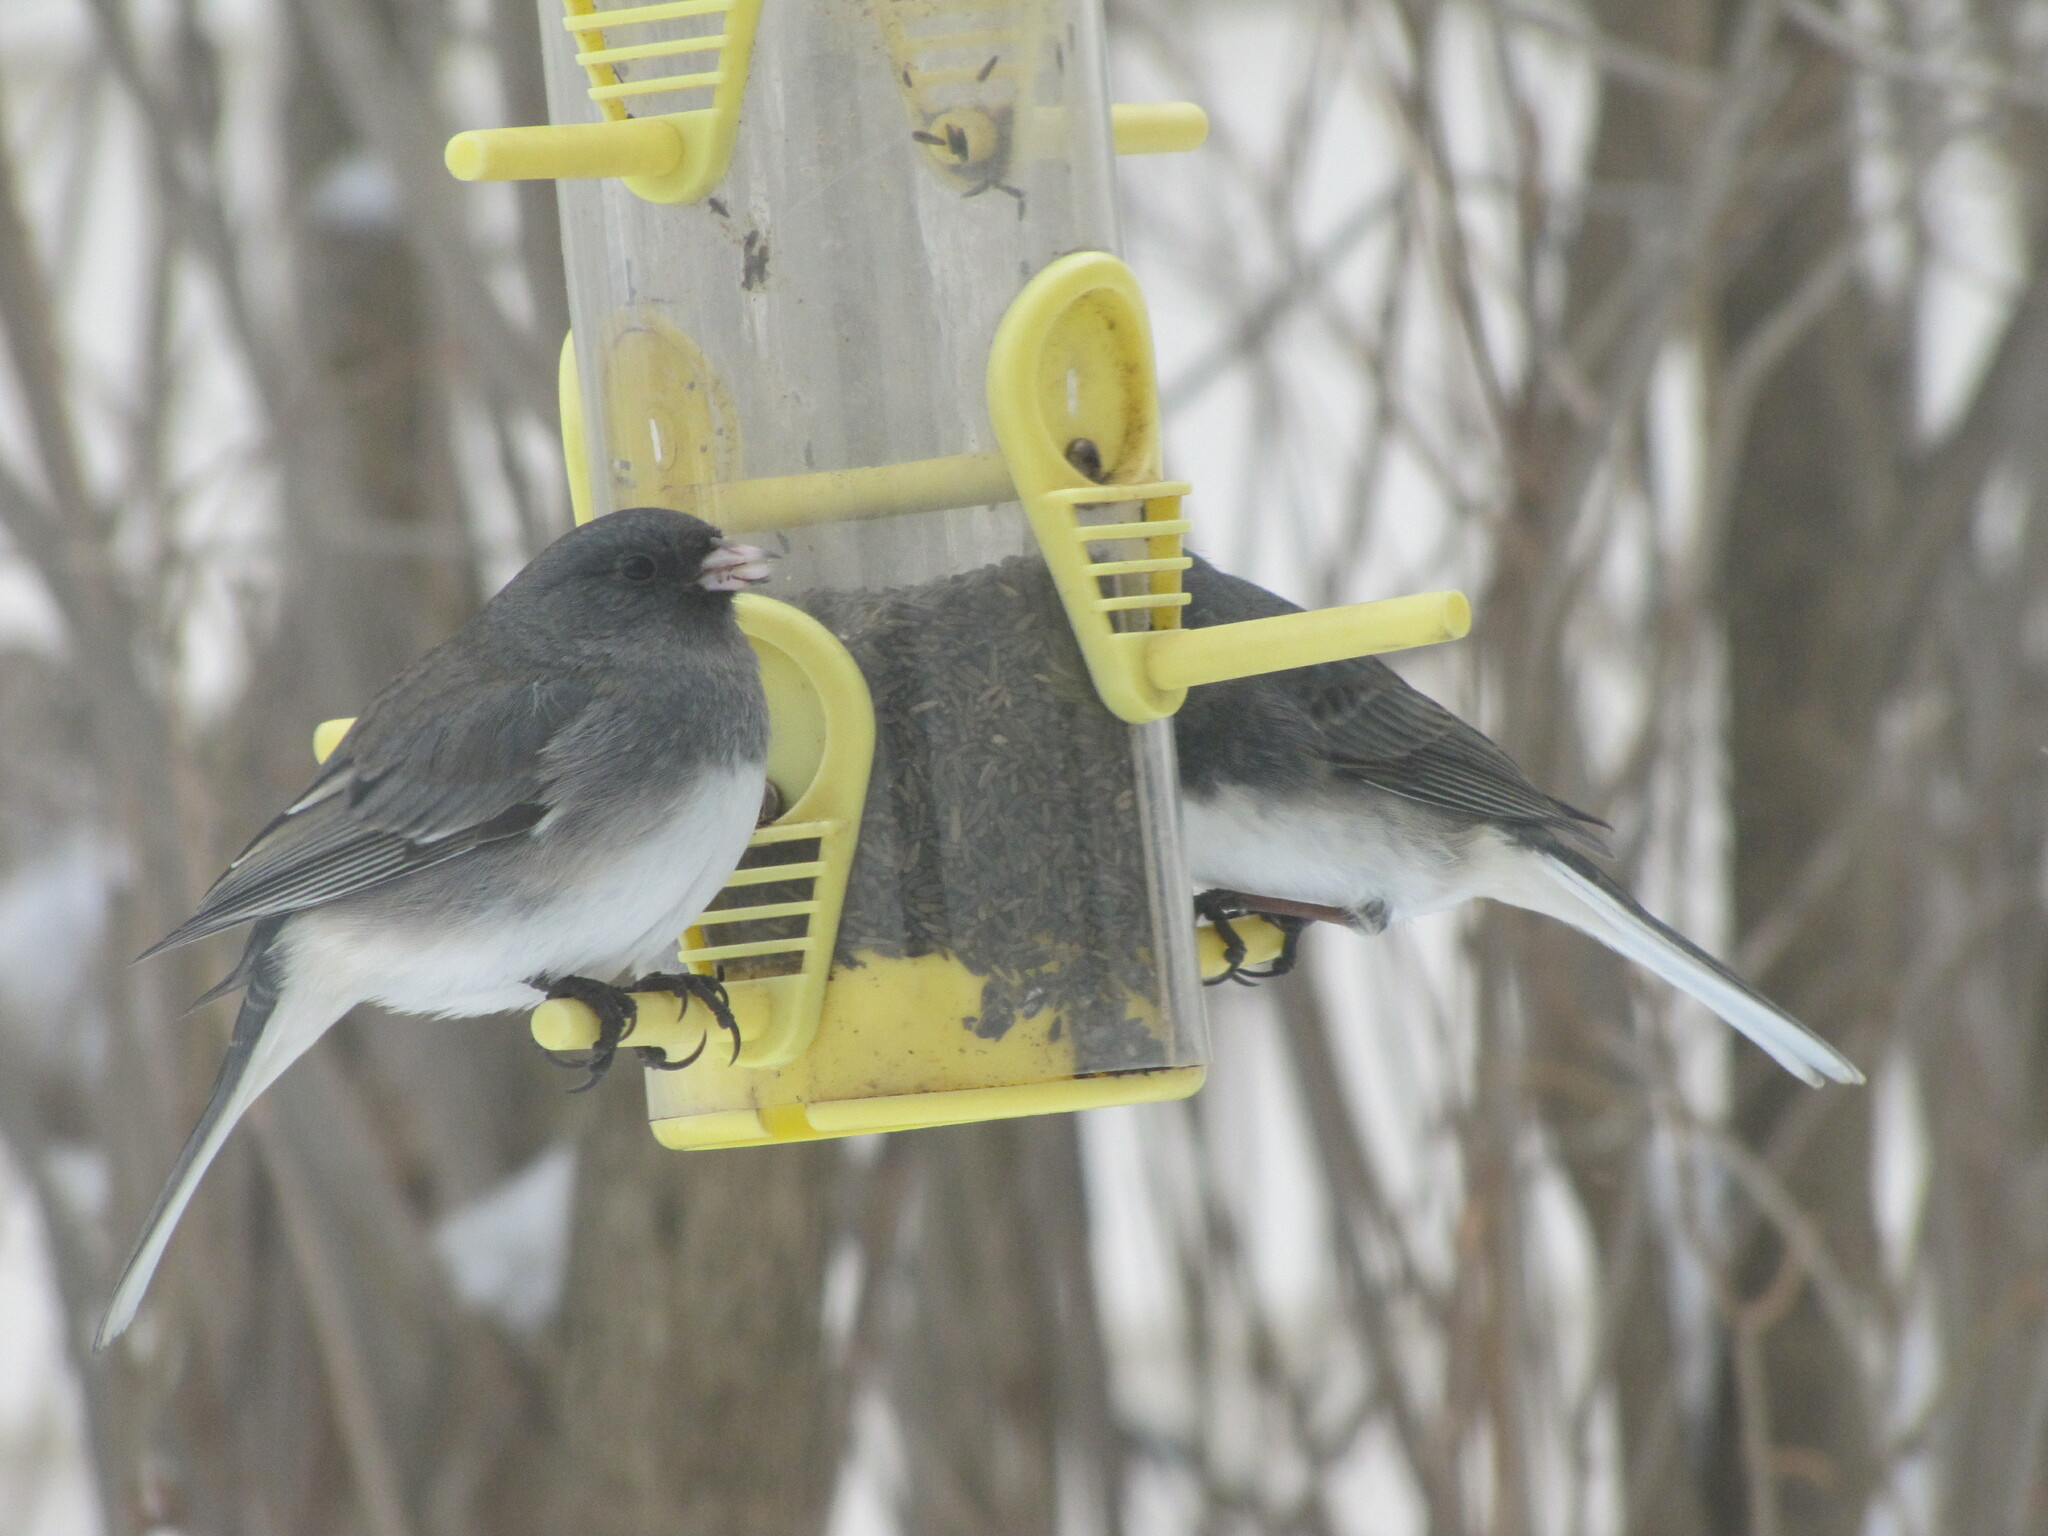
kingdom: Animalia
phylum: Chordata
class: Aves
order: Passeriformes
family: Passerellidae
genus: Junco
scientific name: Junco hyemalis
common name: Dark-eyed junco
